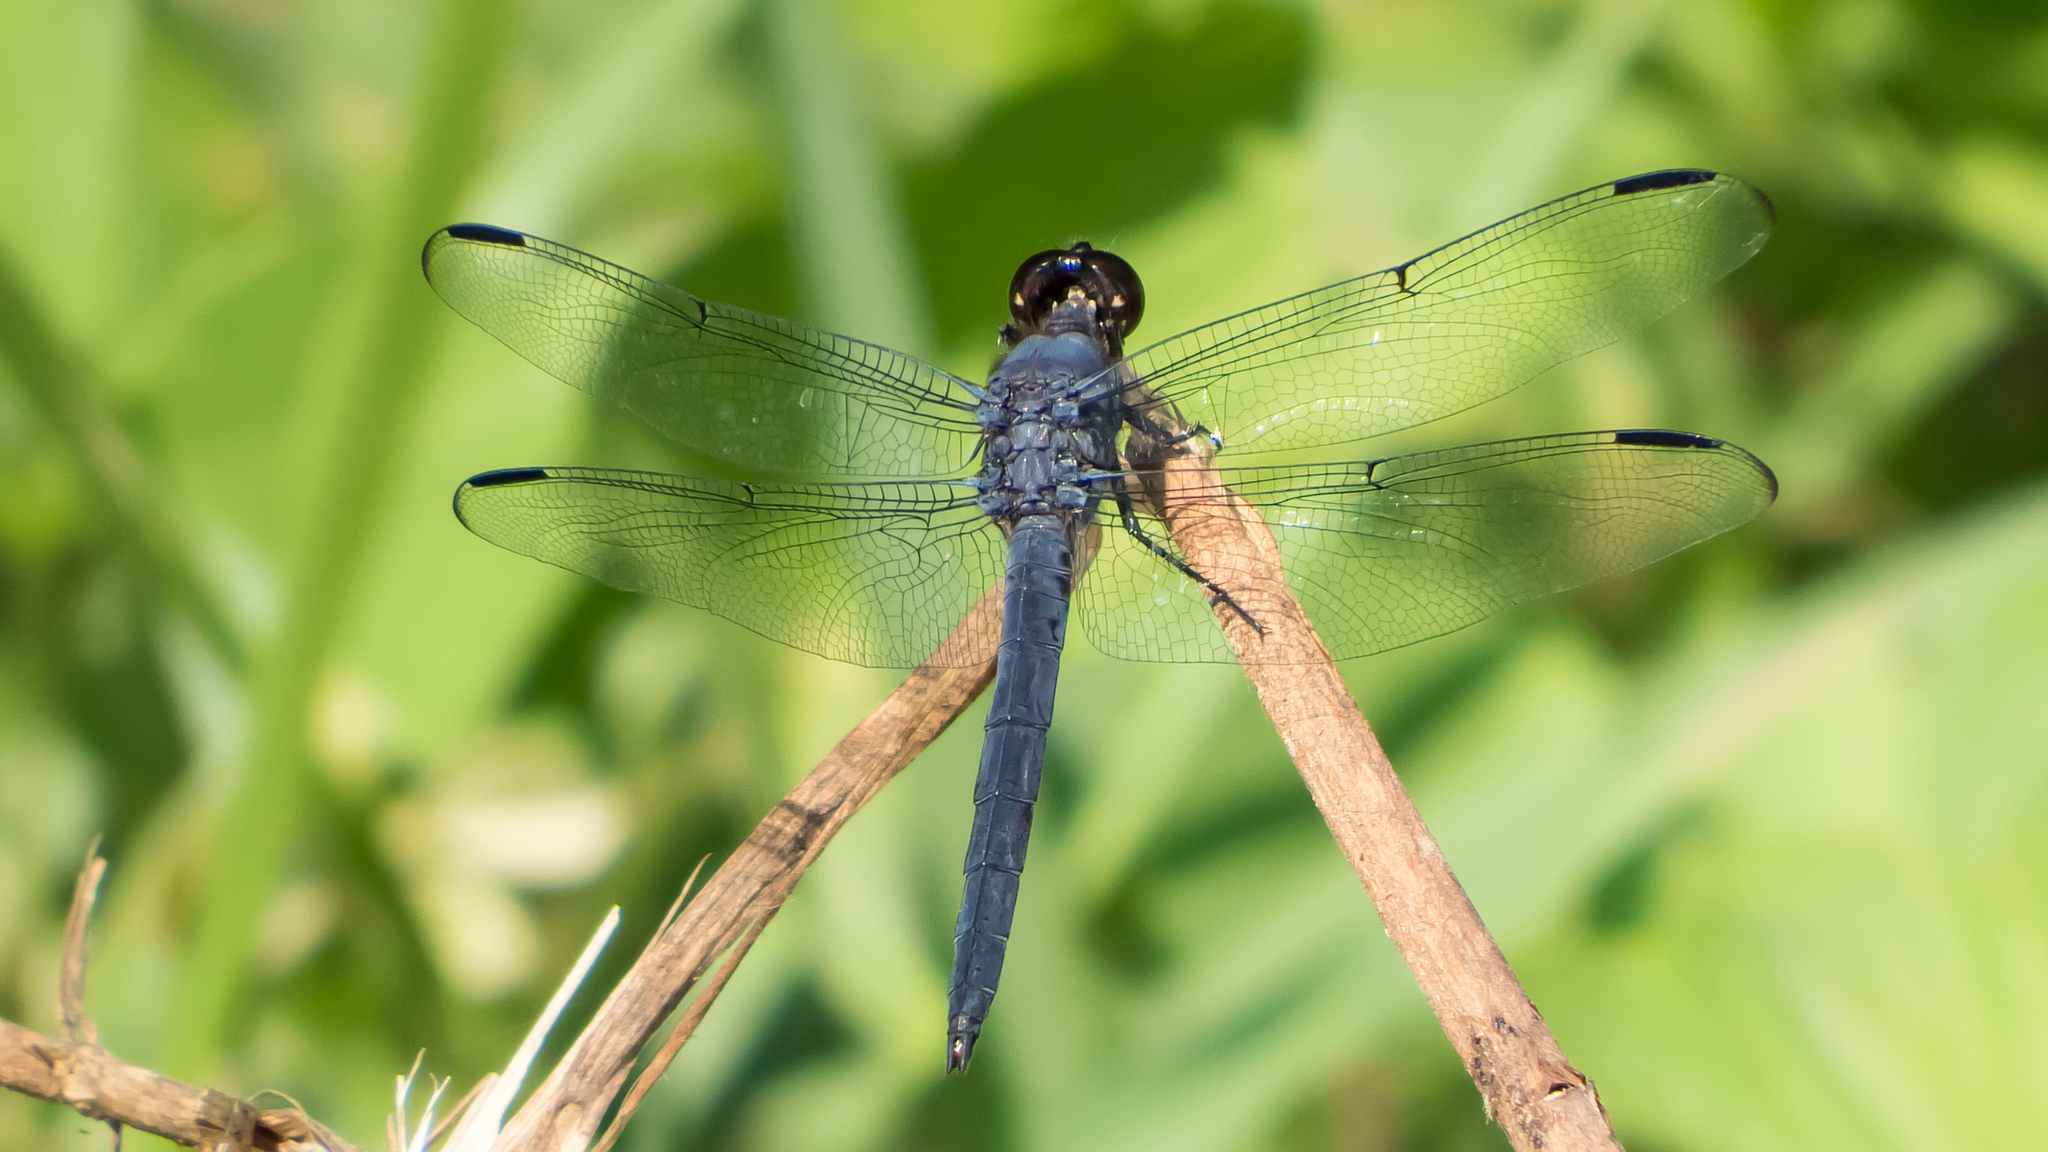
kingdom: Animalia
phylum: Arthropoda
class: Insecta
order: Odonata
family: Libellulidae
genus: Libellula
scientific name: Libellula incesta
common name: Slaty skimmer
